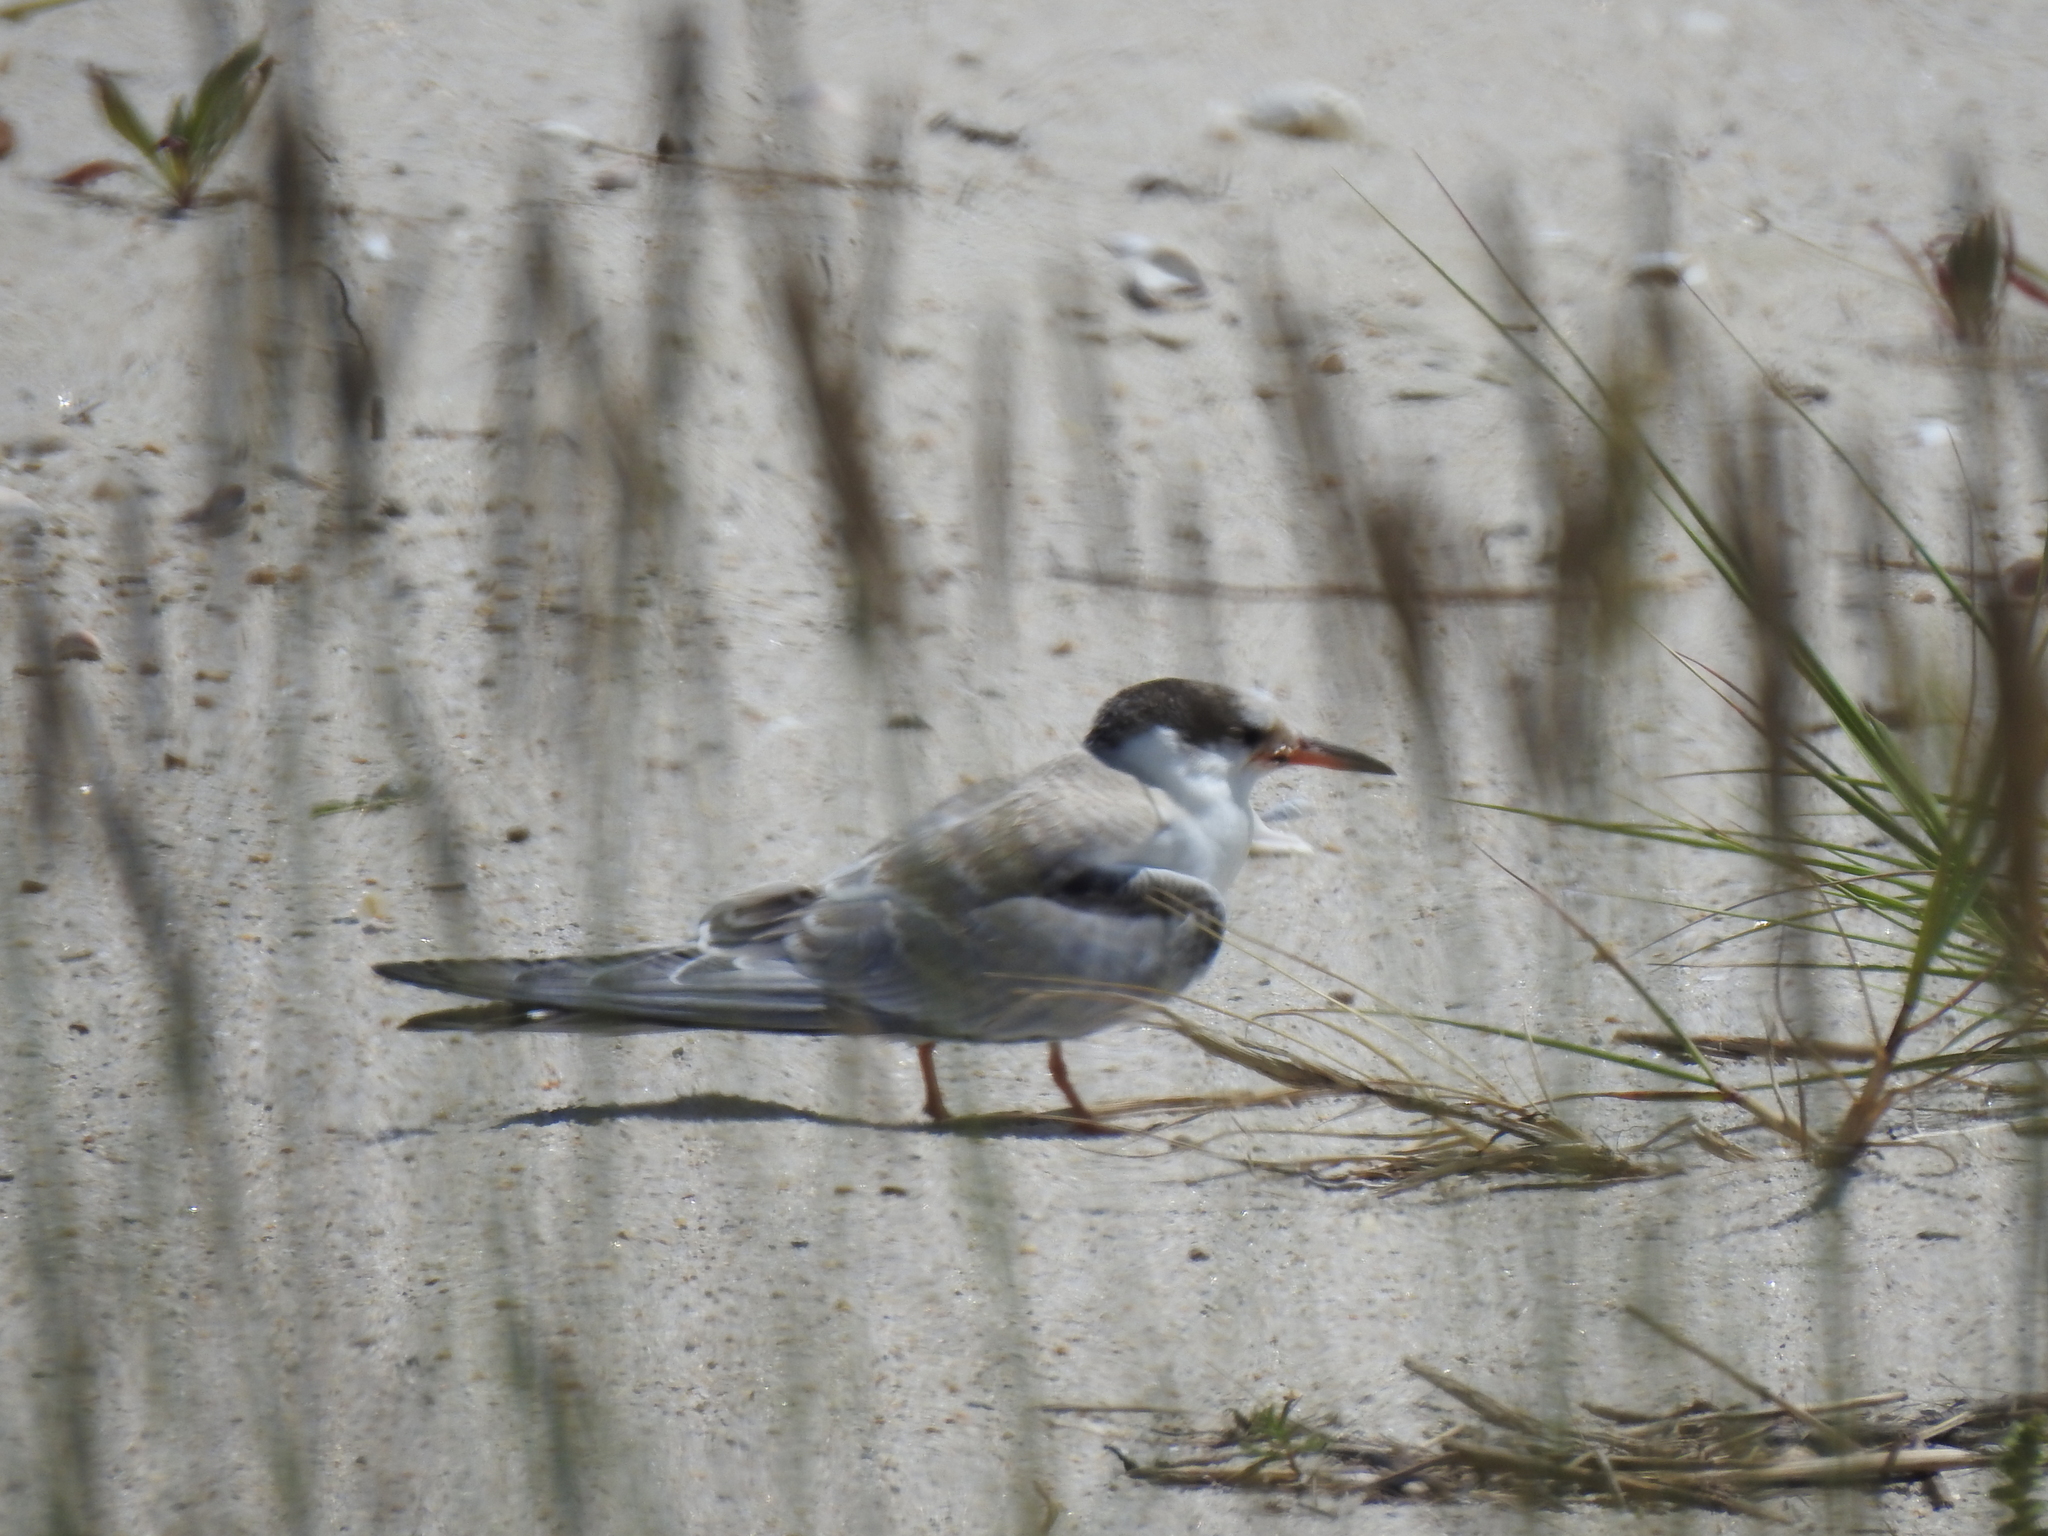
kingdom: Animalia
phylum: Chordata
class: Aves
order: Charadriiformes
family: Laridae
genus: Sterna
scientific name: Sterna hirundo
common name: Common tern
